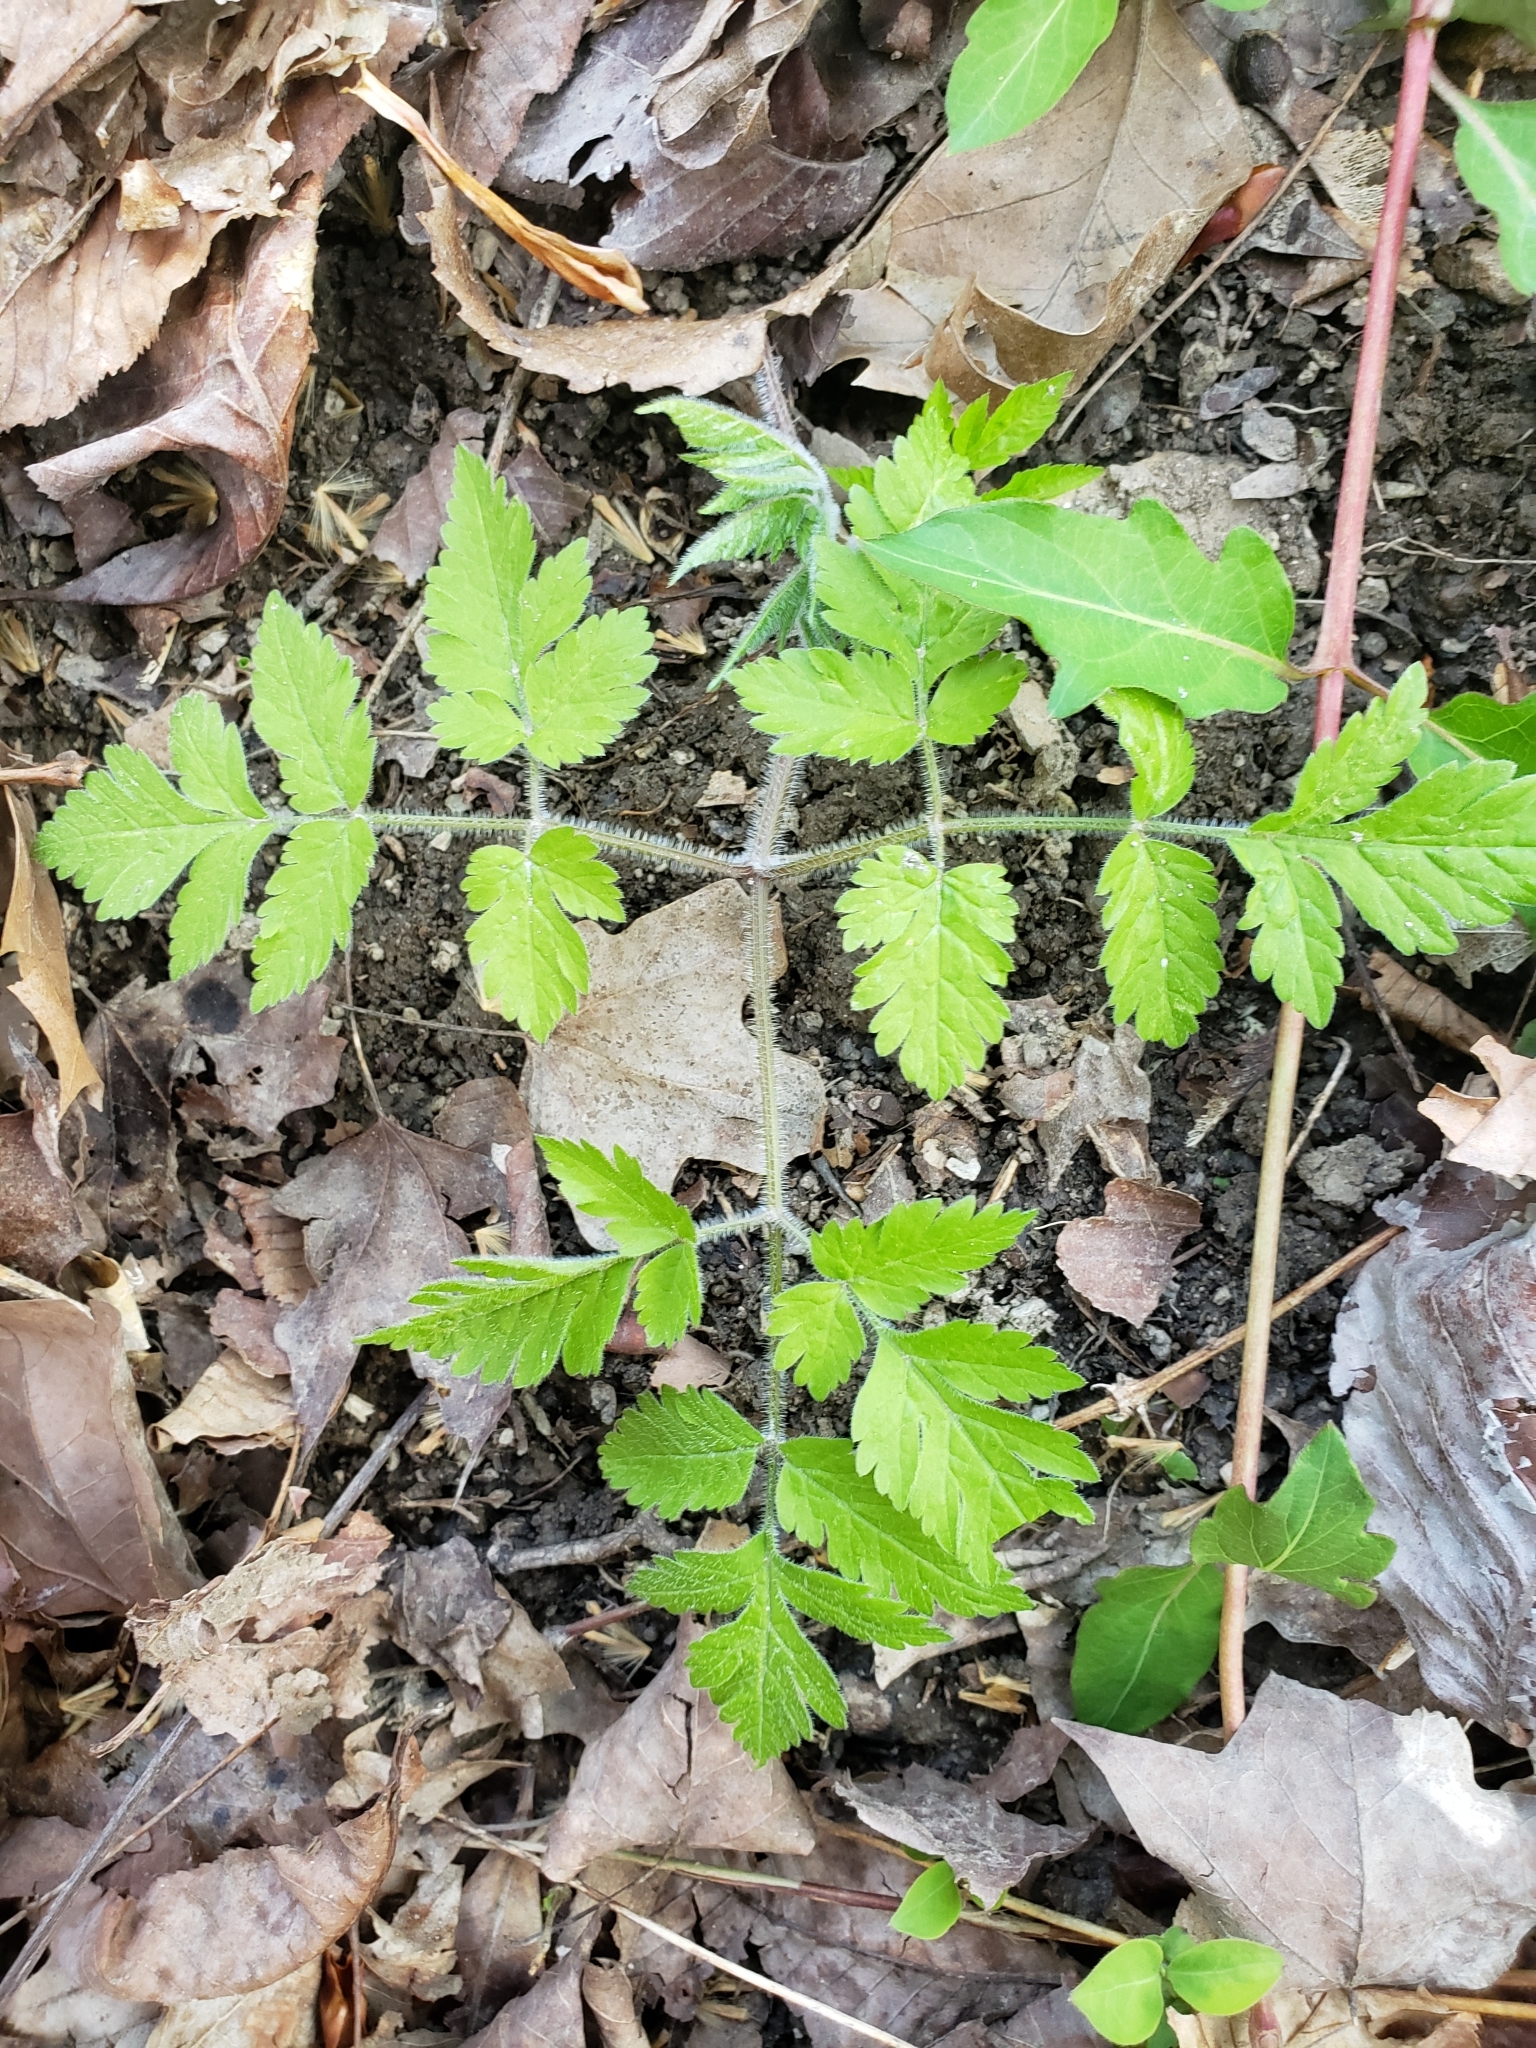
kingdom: Plantae
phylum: Tracheophyta
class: Magnoliopsida
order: Apiales
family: Apiaceae
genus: Osmorhiza
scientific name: Osmorhiza claytonii
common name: Hairy sweet cicely
